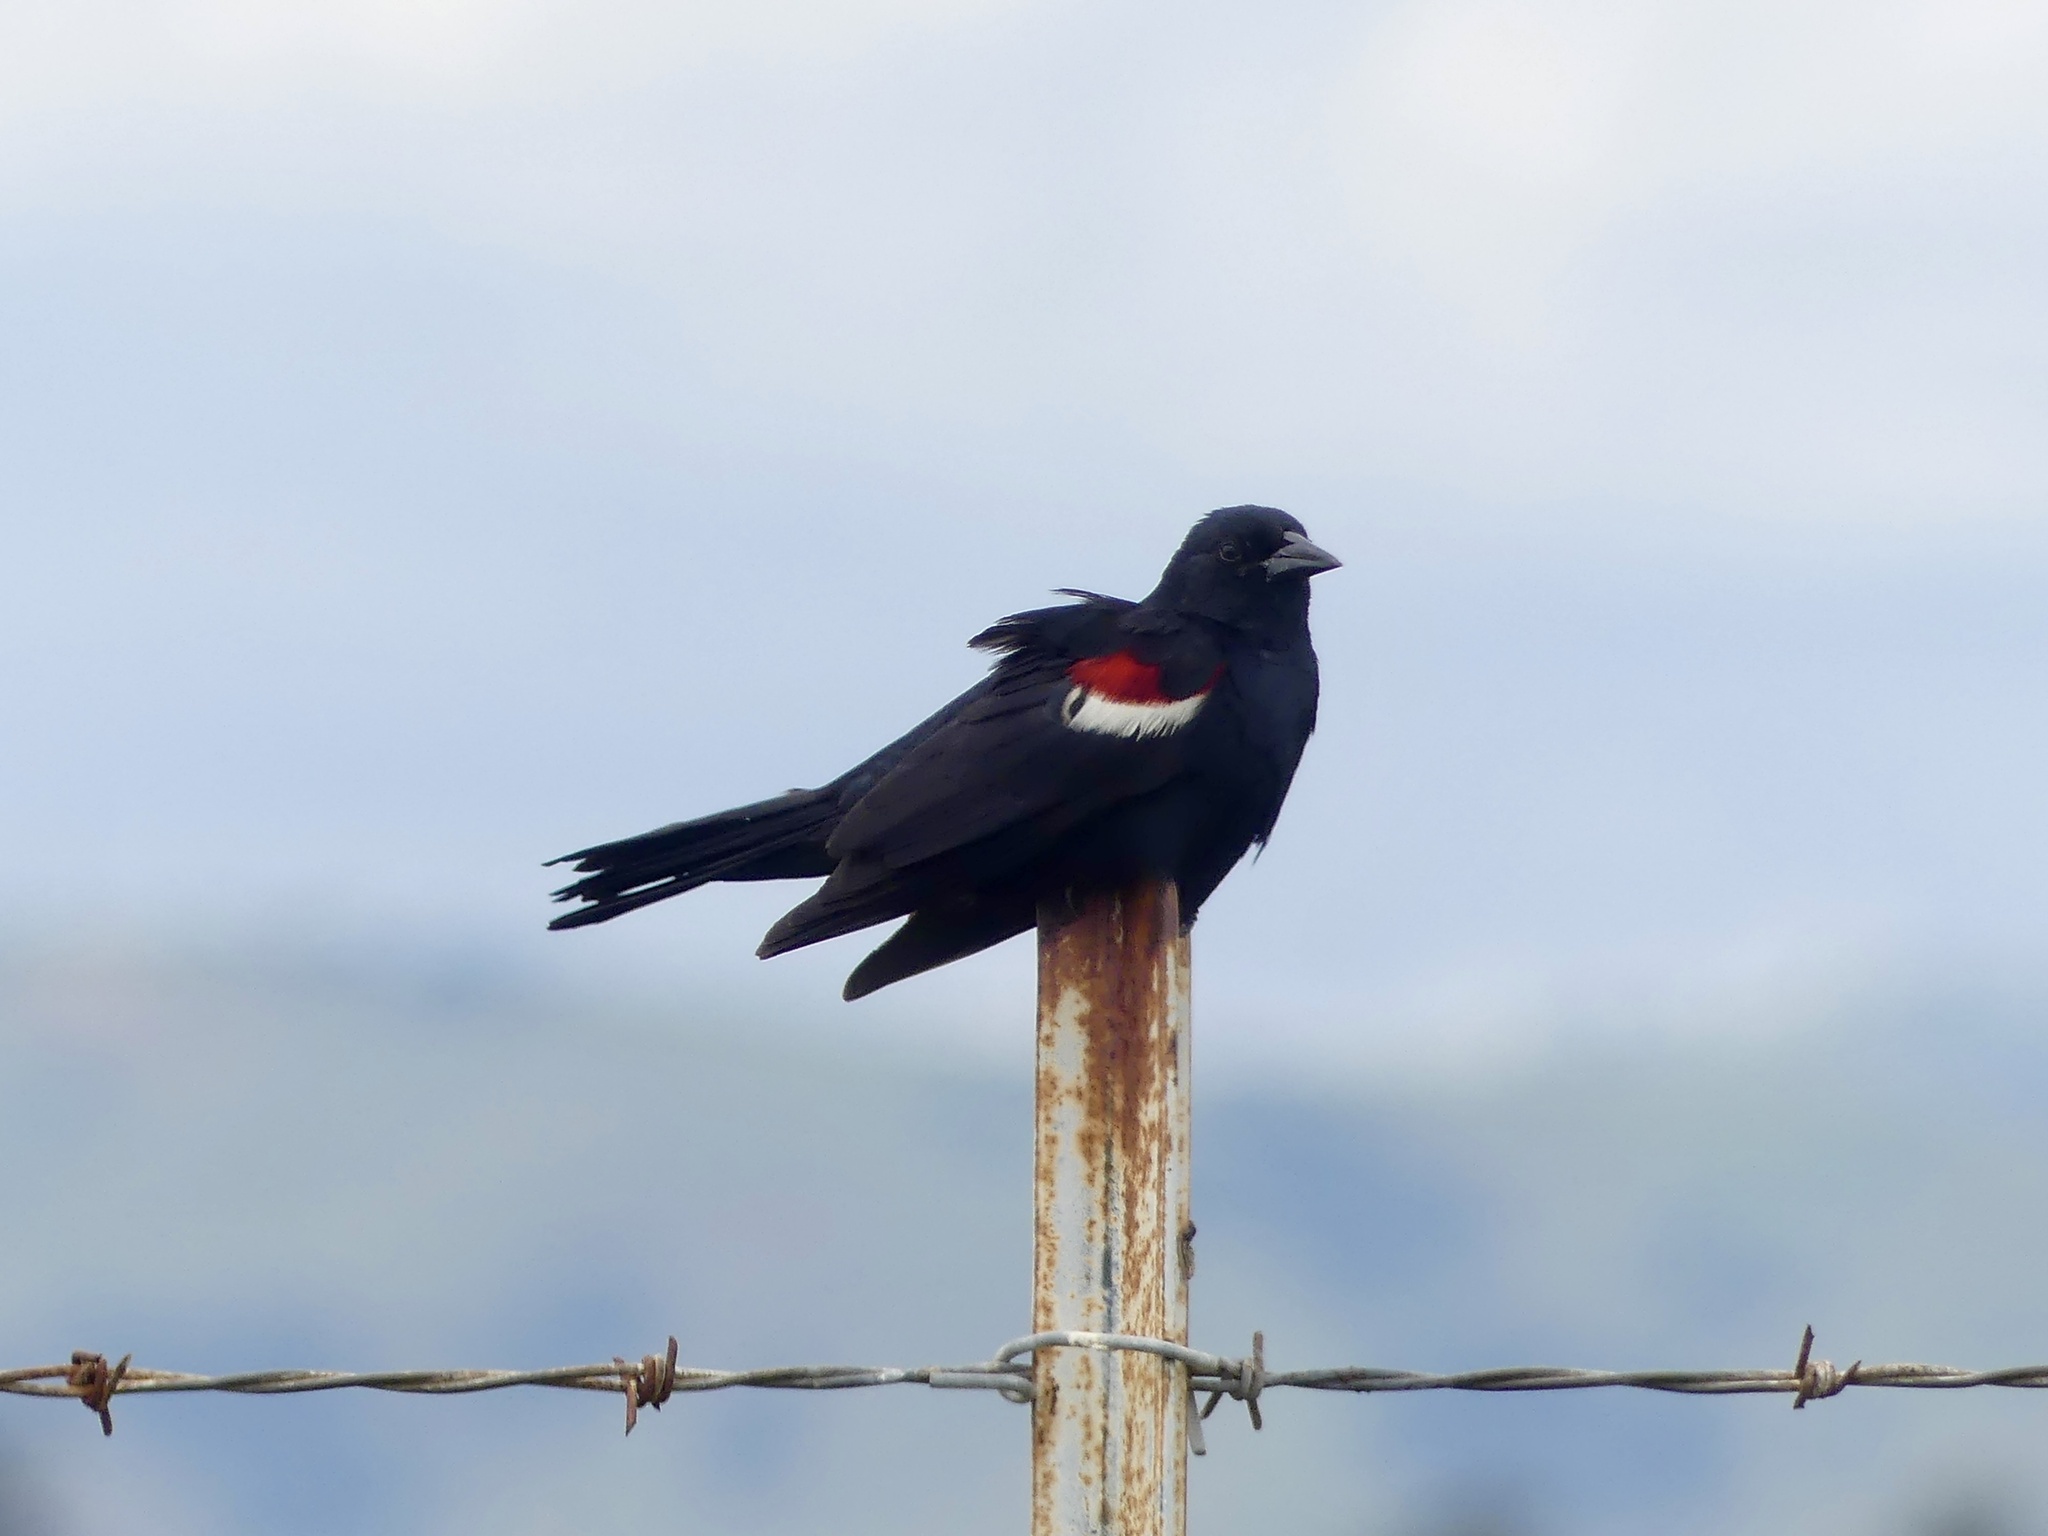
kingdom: Animalia
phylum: Chordata
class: Aves
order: Passeriformes
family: Icteridae
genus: Agelaius
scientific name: Agelaius tricolor
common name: Tricolored blackbird
